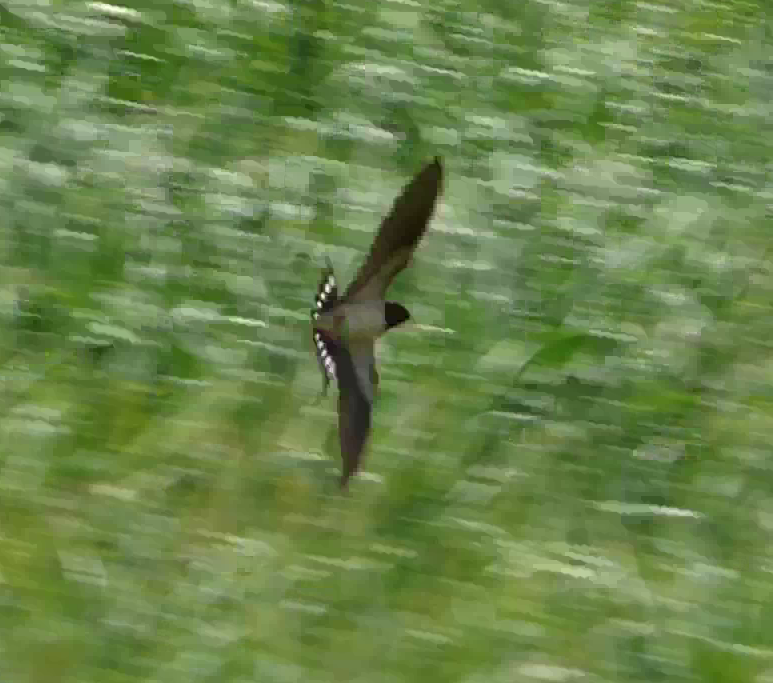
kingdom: Animalia
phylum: Chordata
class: Aves
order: Passeriformes
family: Hirundinidae
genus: Hirundo
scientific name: Hirundo rustica
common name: Barn swallow
